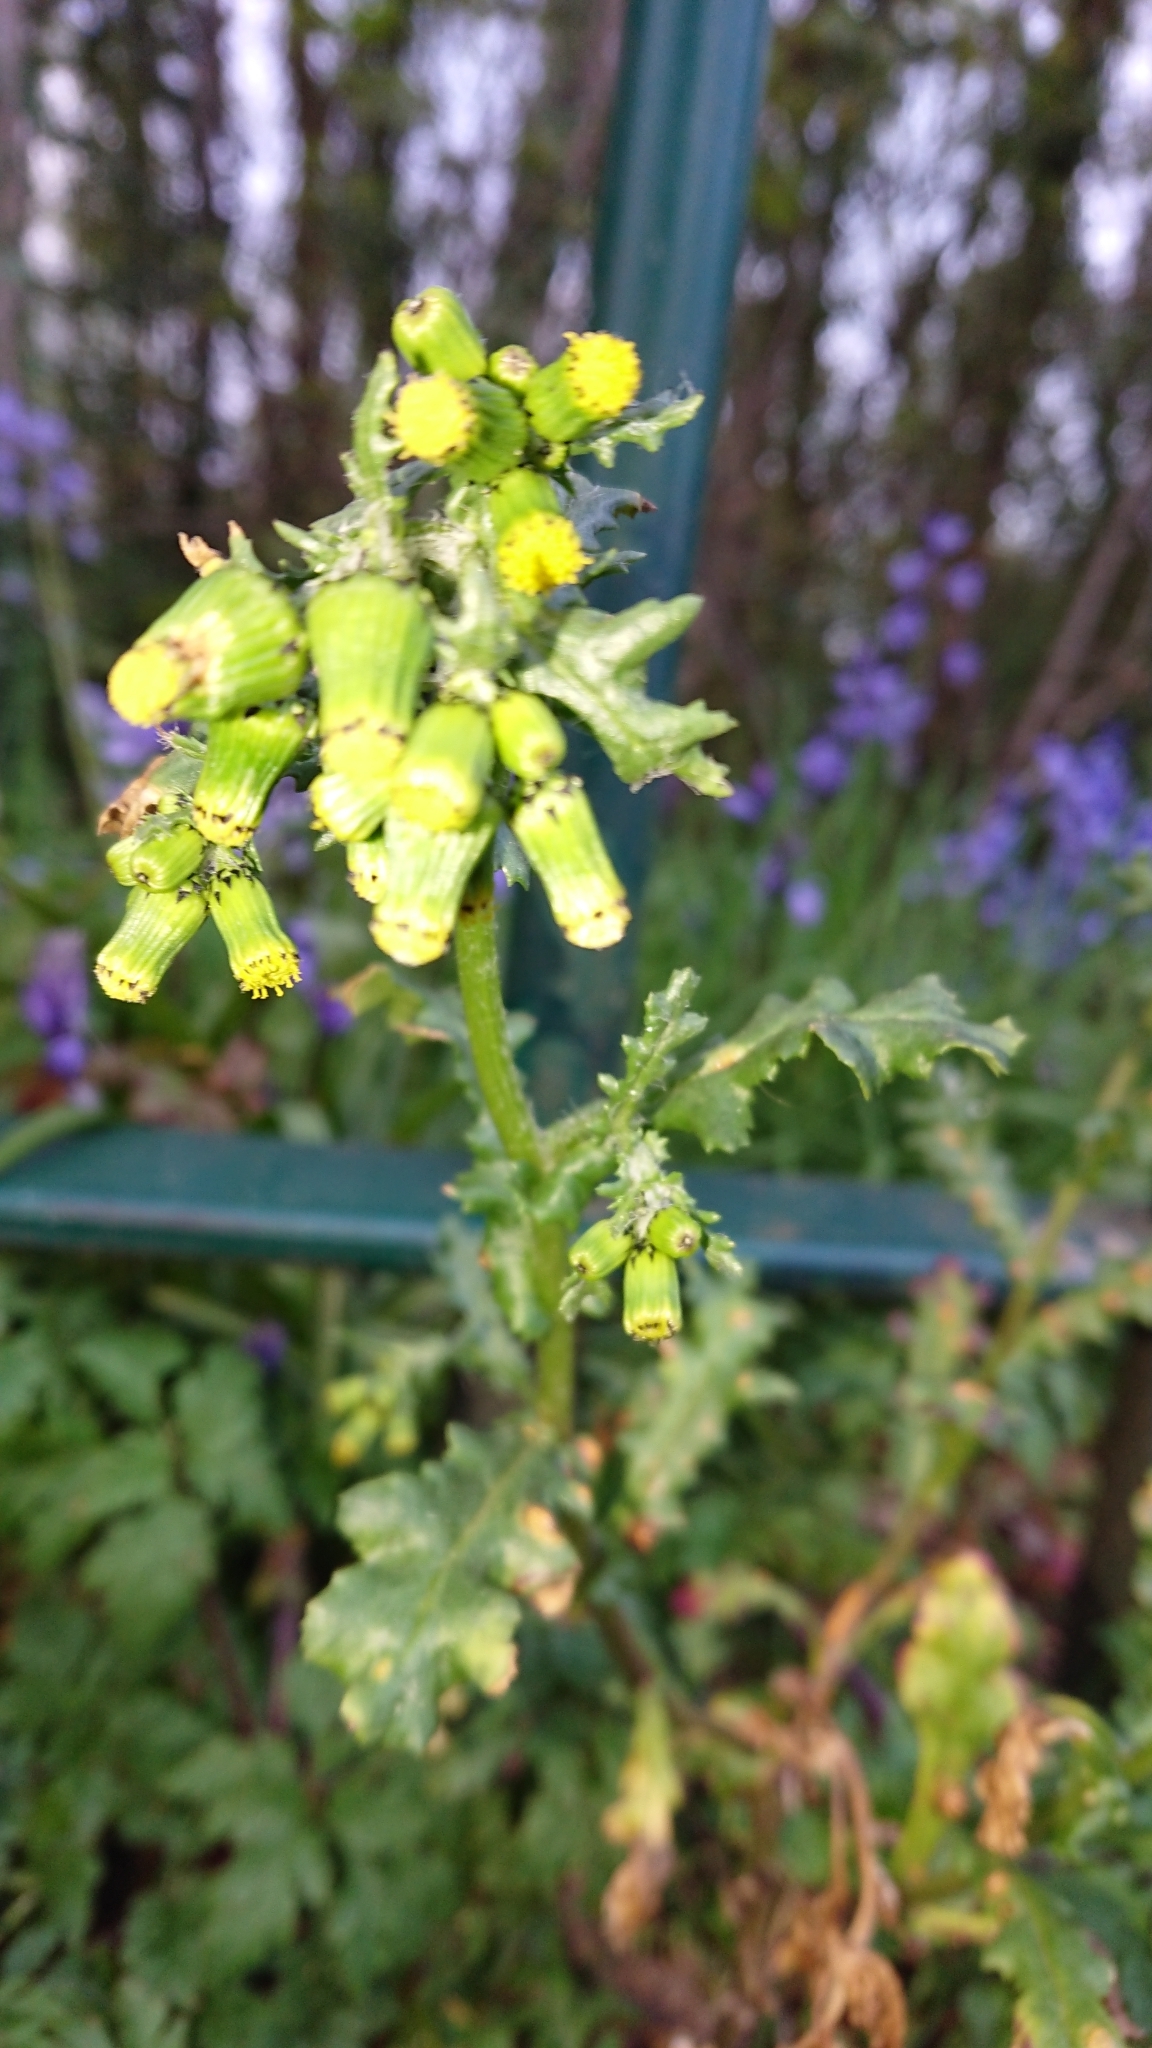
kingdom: Plantae
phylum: Tracheophyta
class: Magnoliopsida
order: Asterales
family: Asteraceae
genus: Senecio
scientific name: Senecio vulgaris
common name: Old-man-in-the-spring
